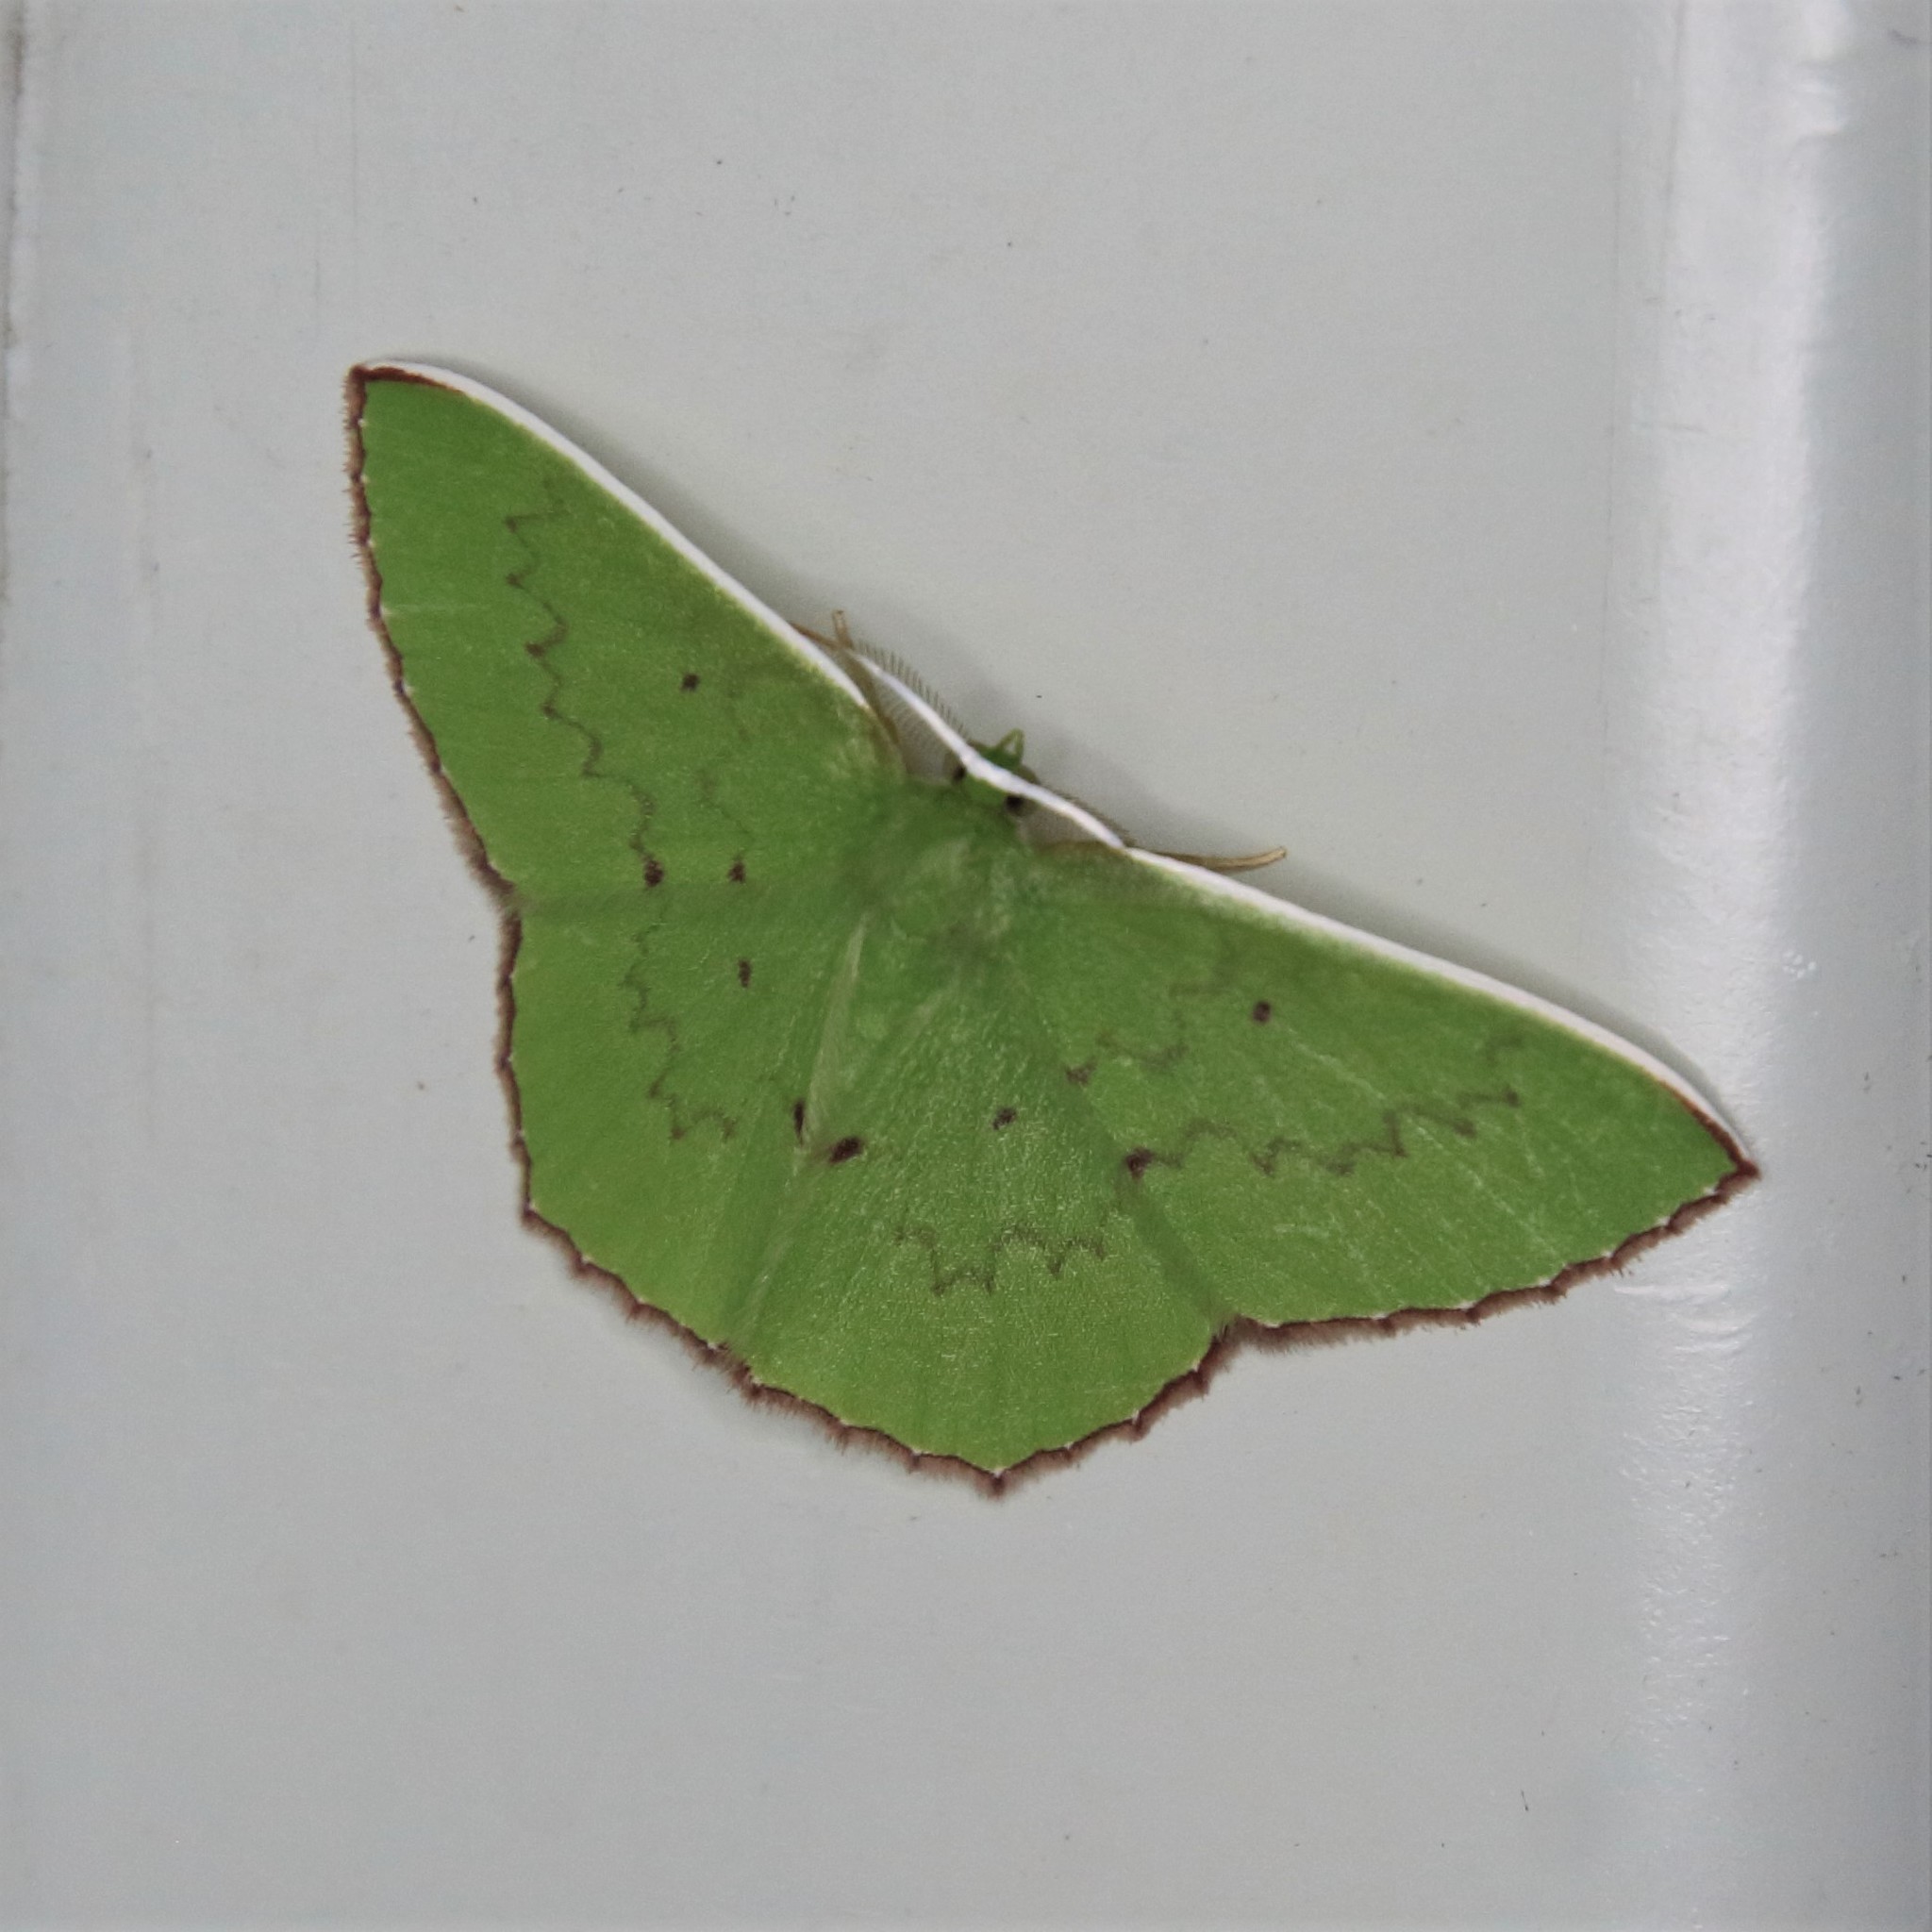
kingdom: Animalia
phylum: Arthropoda
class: Insecta
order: Lepidoptera
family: Geometridae
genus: Oenospila
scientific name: Oenospila flavifusata
